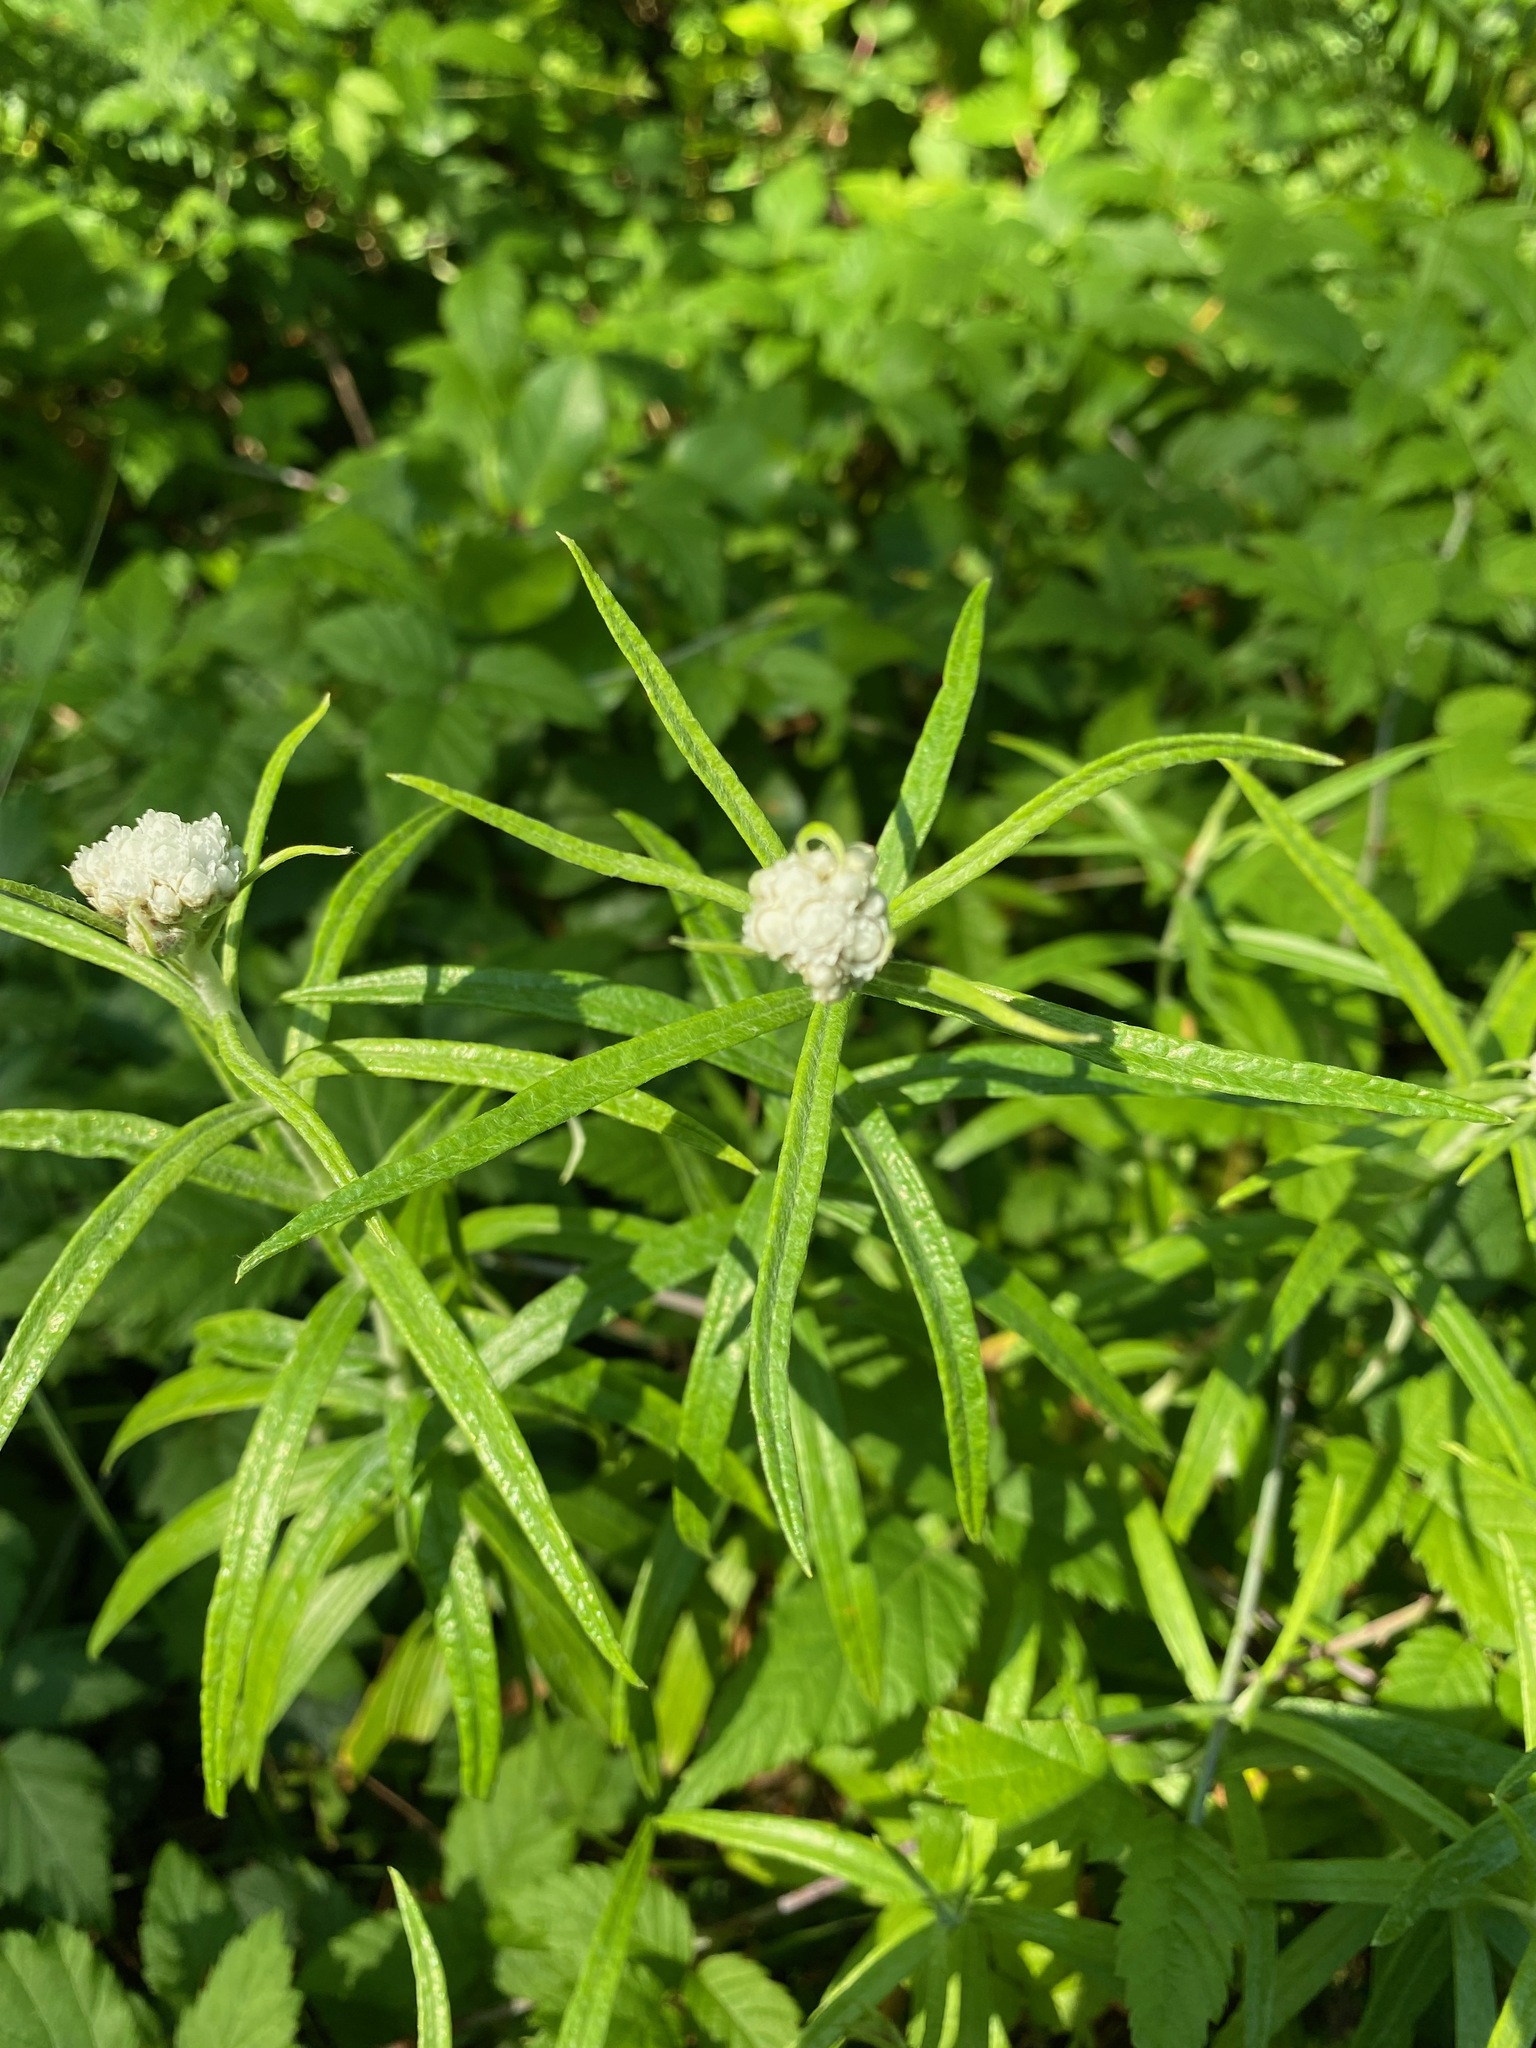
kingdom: Plantae
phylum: Tracheophyta
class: Magnoliopsida
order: Asterales
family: Asteraceae
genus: Anaphalis
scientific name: Anaphalis margaritacea
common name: Pearly everlasting
